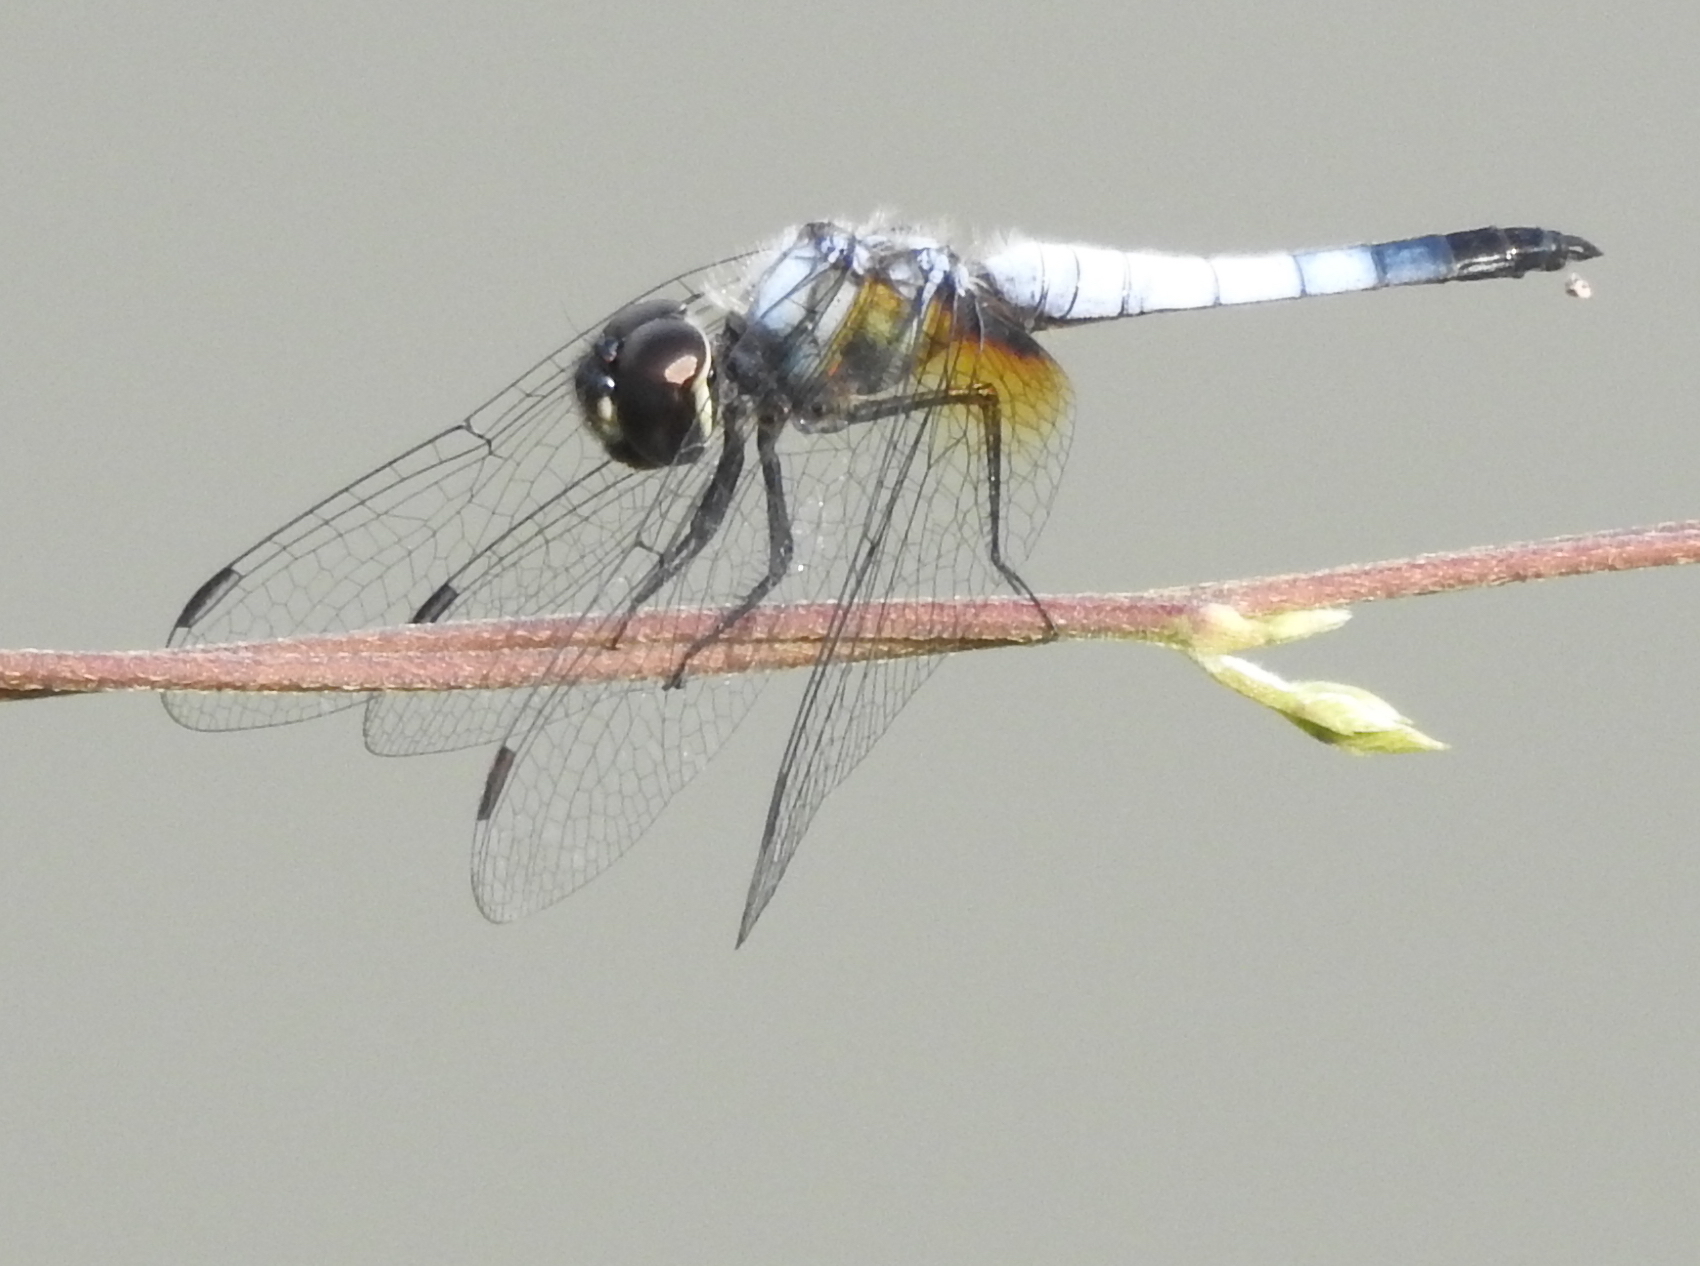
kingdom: Animalia
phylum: Arthropoda
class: Insecta
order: Odonata
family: Libellulidae
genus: Aethriamanta
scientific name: Aethriamanta gracilis
